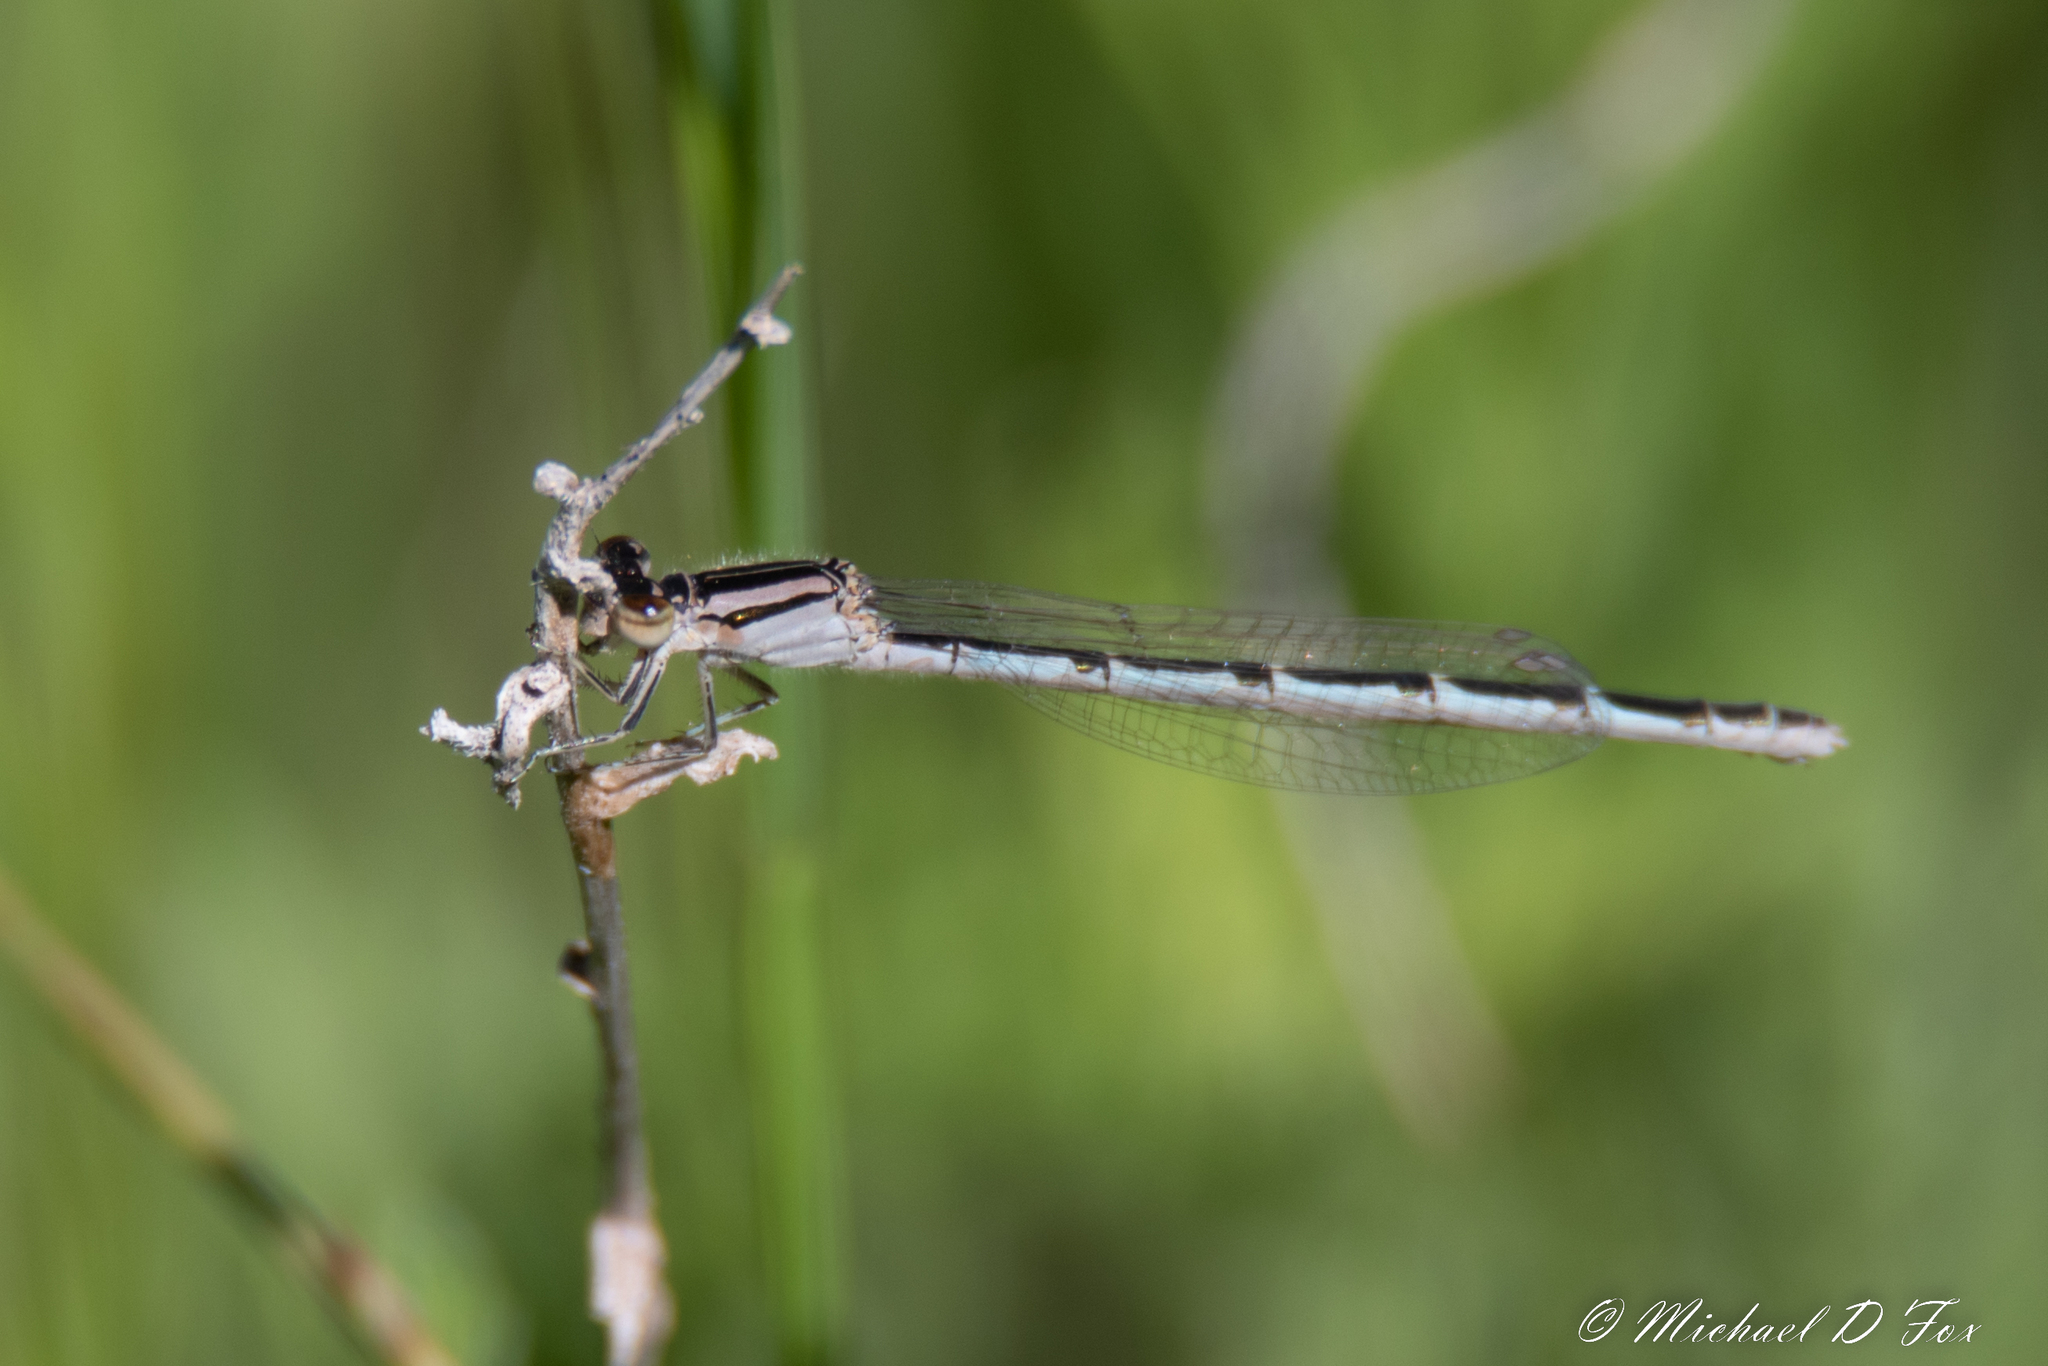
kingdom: Animalia
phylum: Arthropoda
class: Insecta
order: Odonata
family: Coenagrionidae
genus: Enallagma
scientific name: Enallagma civile
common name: Damselfly
